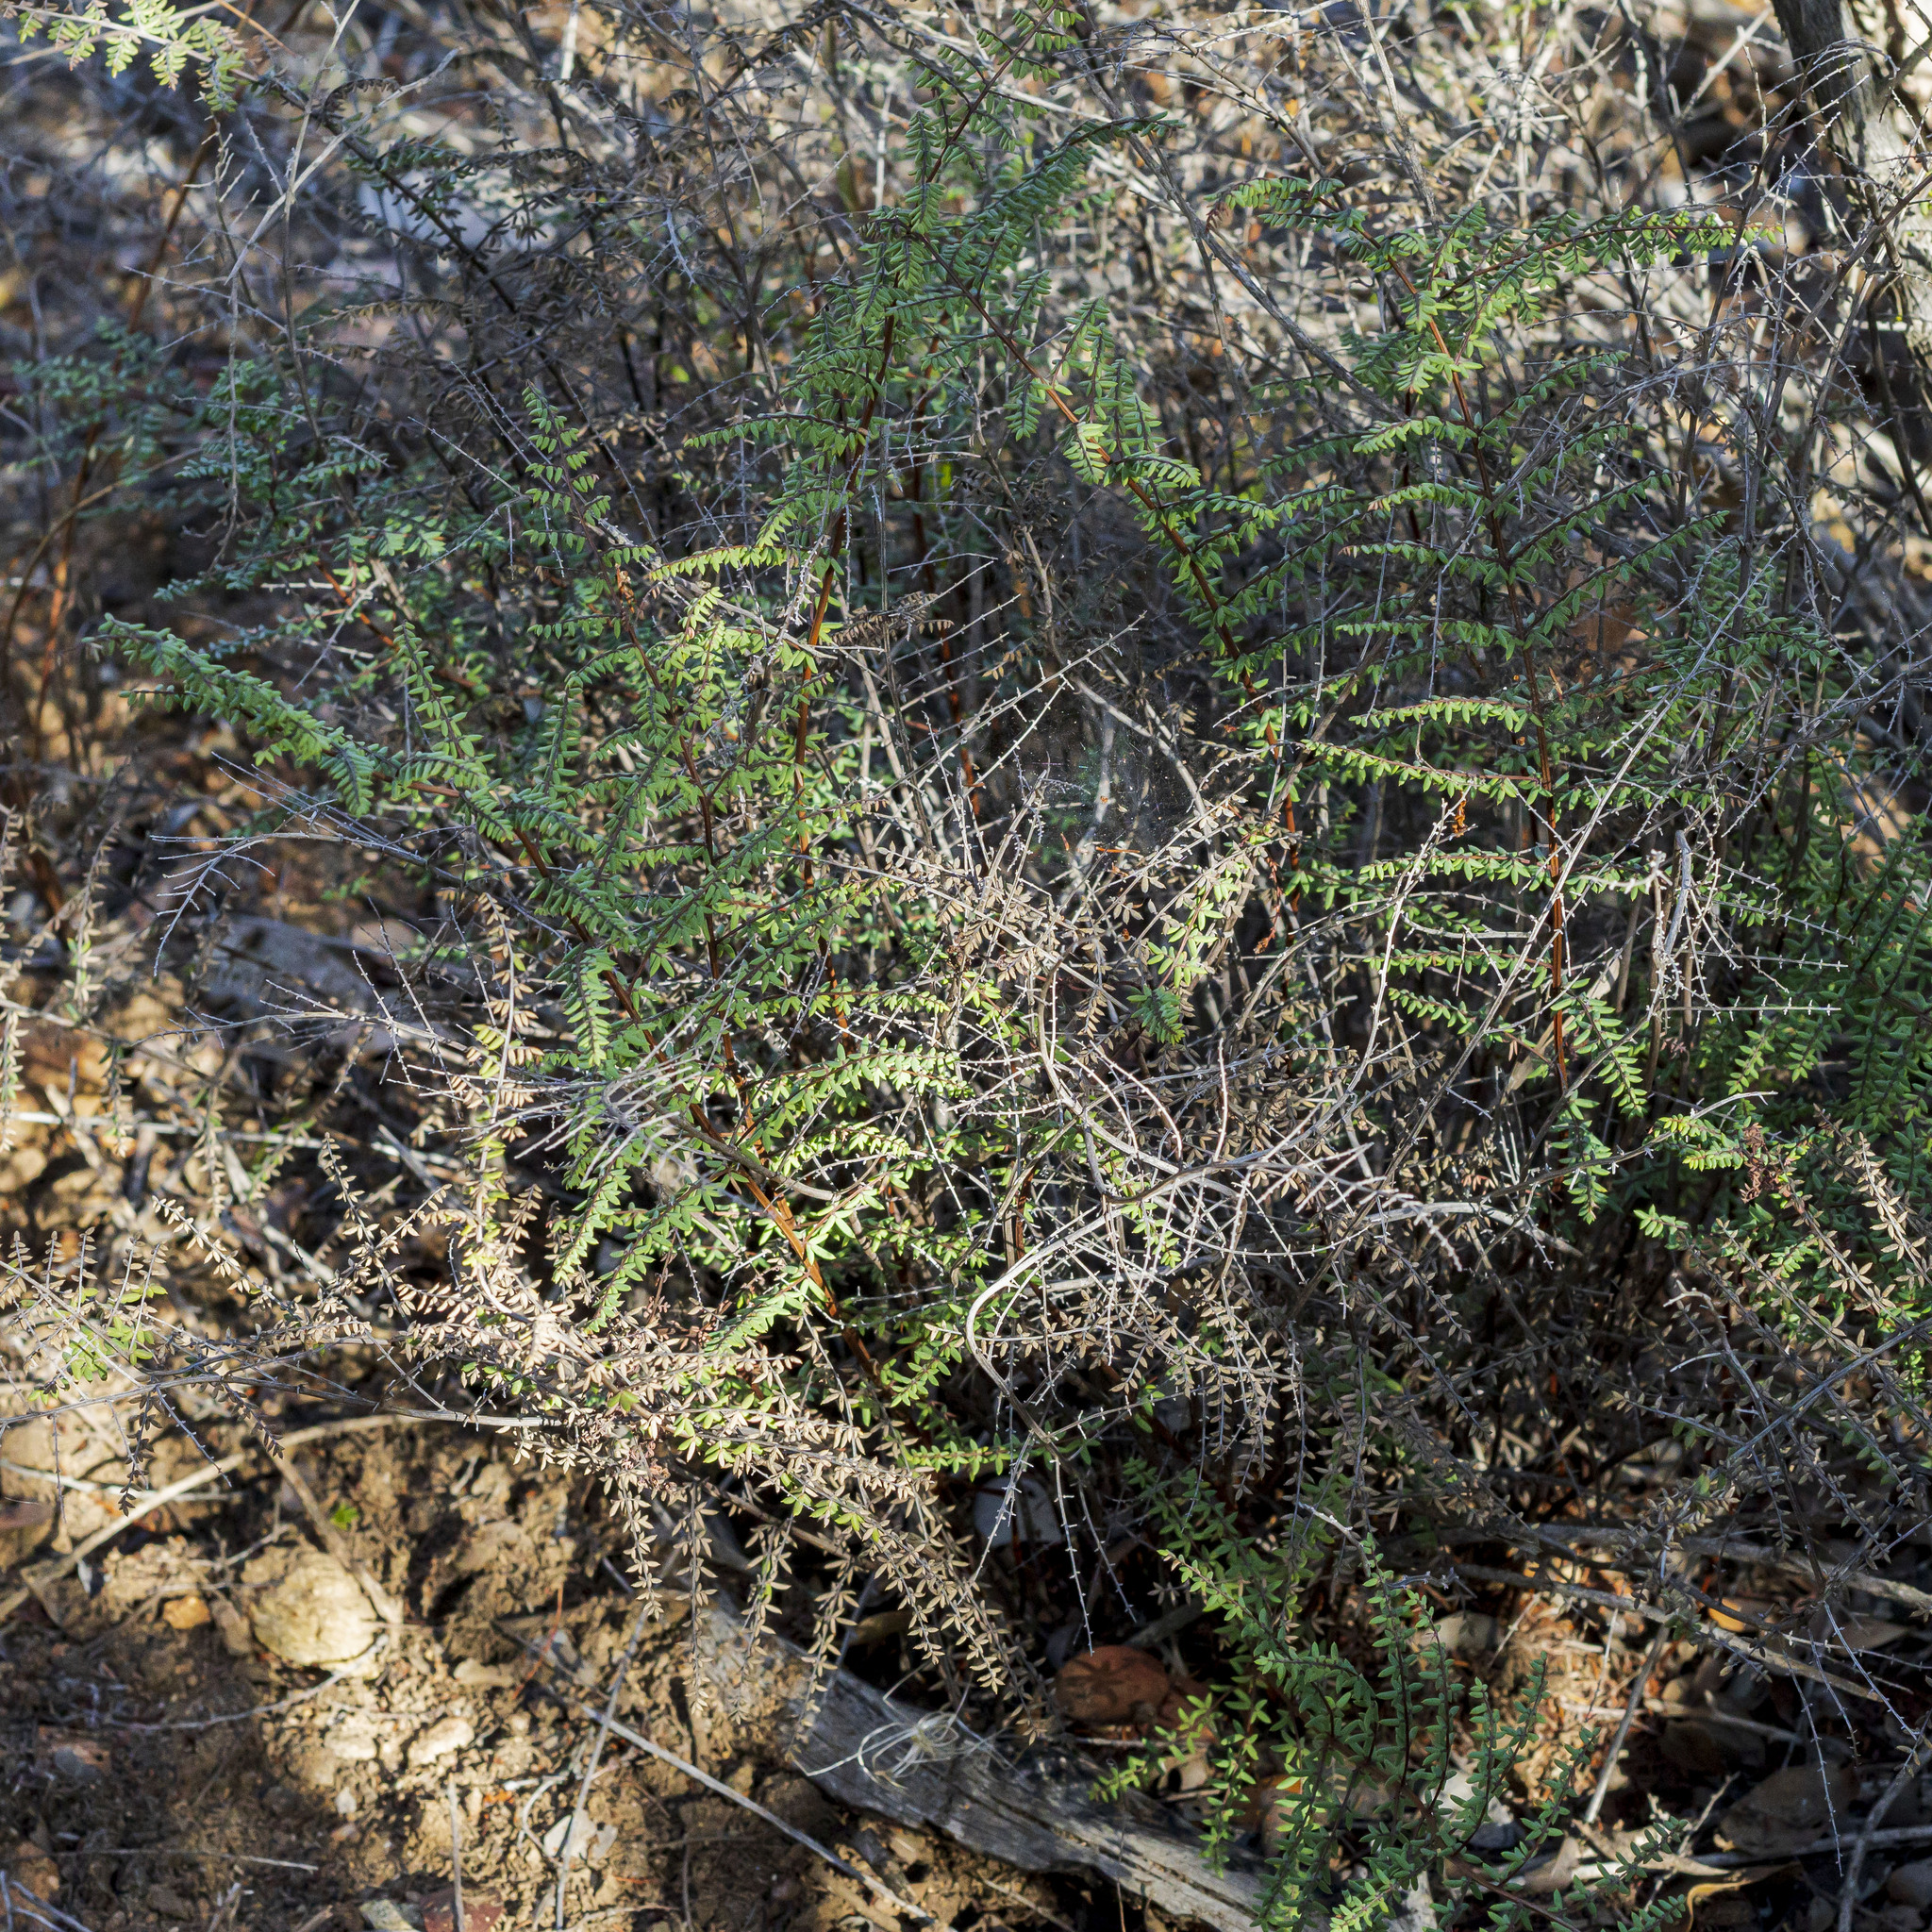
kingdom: Plantae
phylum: Tracheophyta
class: Polypodiopsida
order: Polypodiales
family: Pteridaceae
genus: Pellaea
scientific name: Pellaea mucronata
